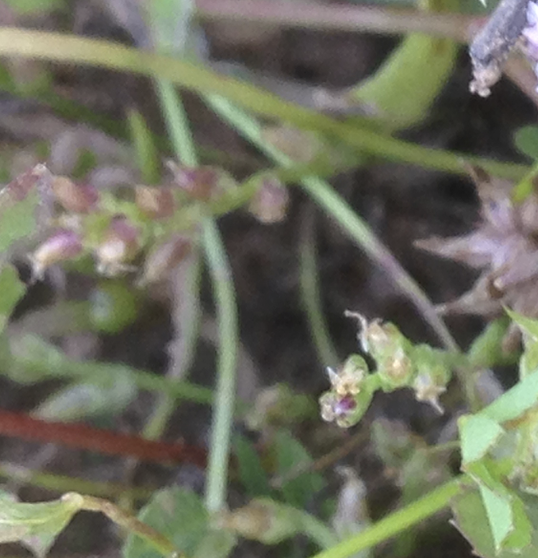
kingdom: Plantae
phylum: Tracheophyta
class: Magnoliopsida
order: Lamiales
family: Plantaginaceae
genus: Plantago
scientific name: Plantago elongata
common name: Linear-leaved plantain
